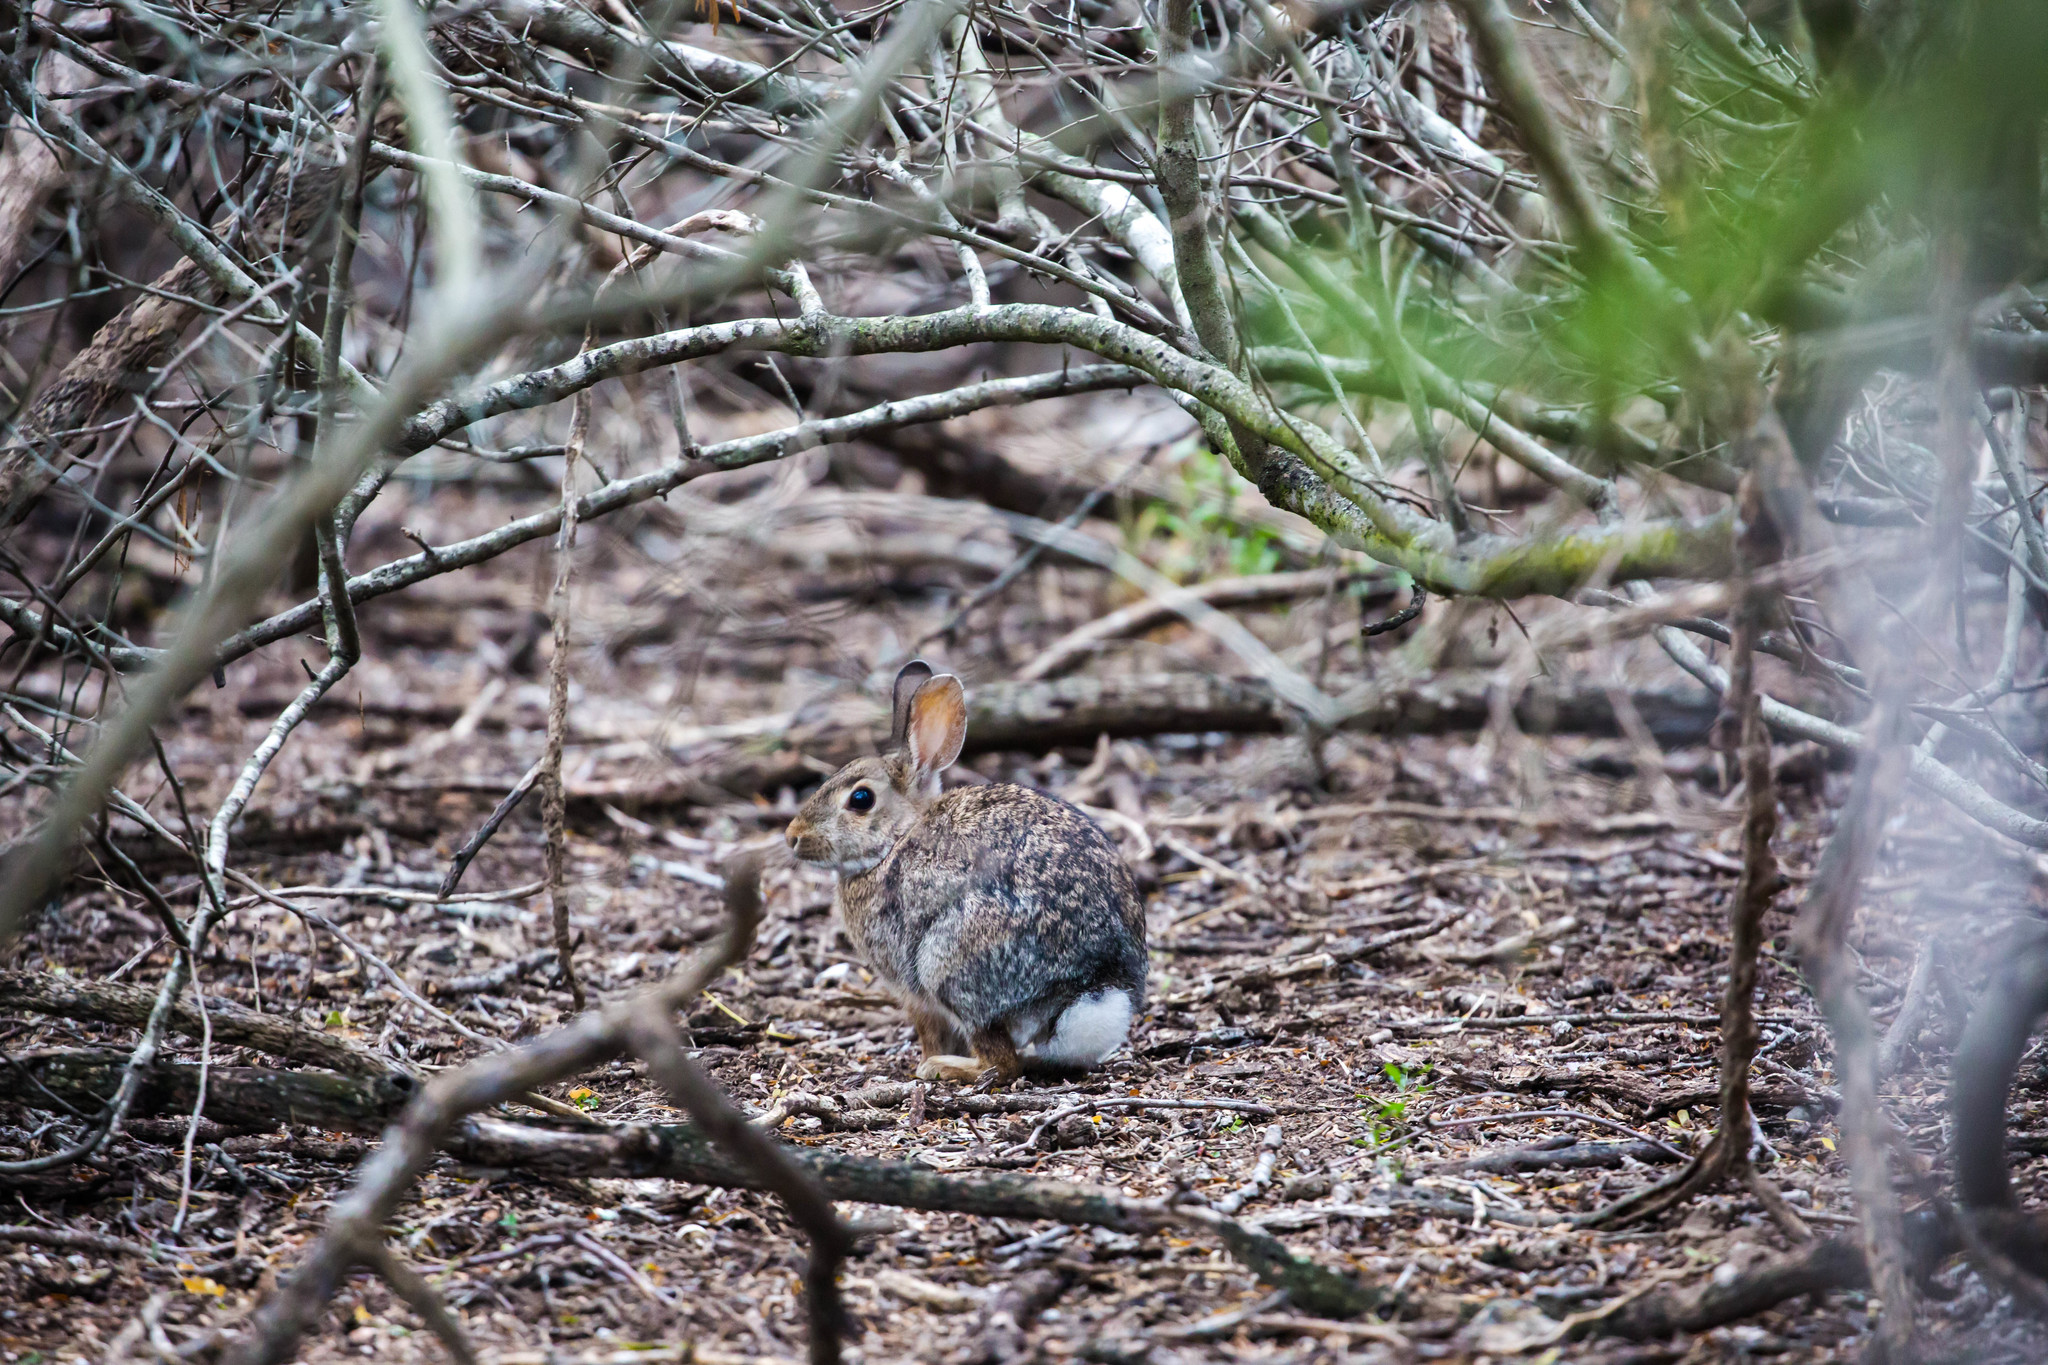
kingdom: Animalia
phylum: Chordata
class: Mammalia
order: Lagomorpha
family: Leporidae
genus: Sylvilagus
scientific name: Sylvilagus floridanus
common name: Eastern cottontail
